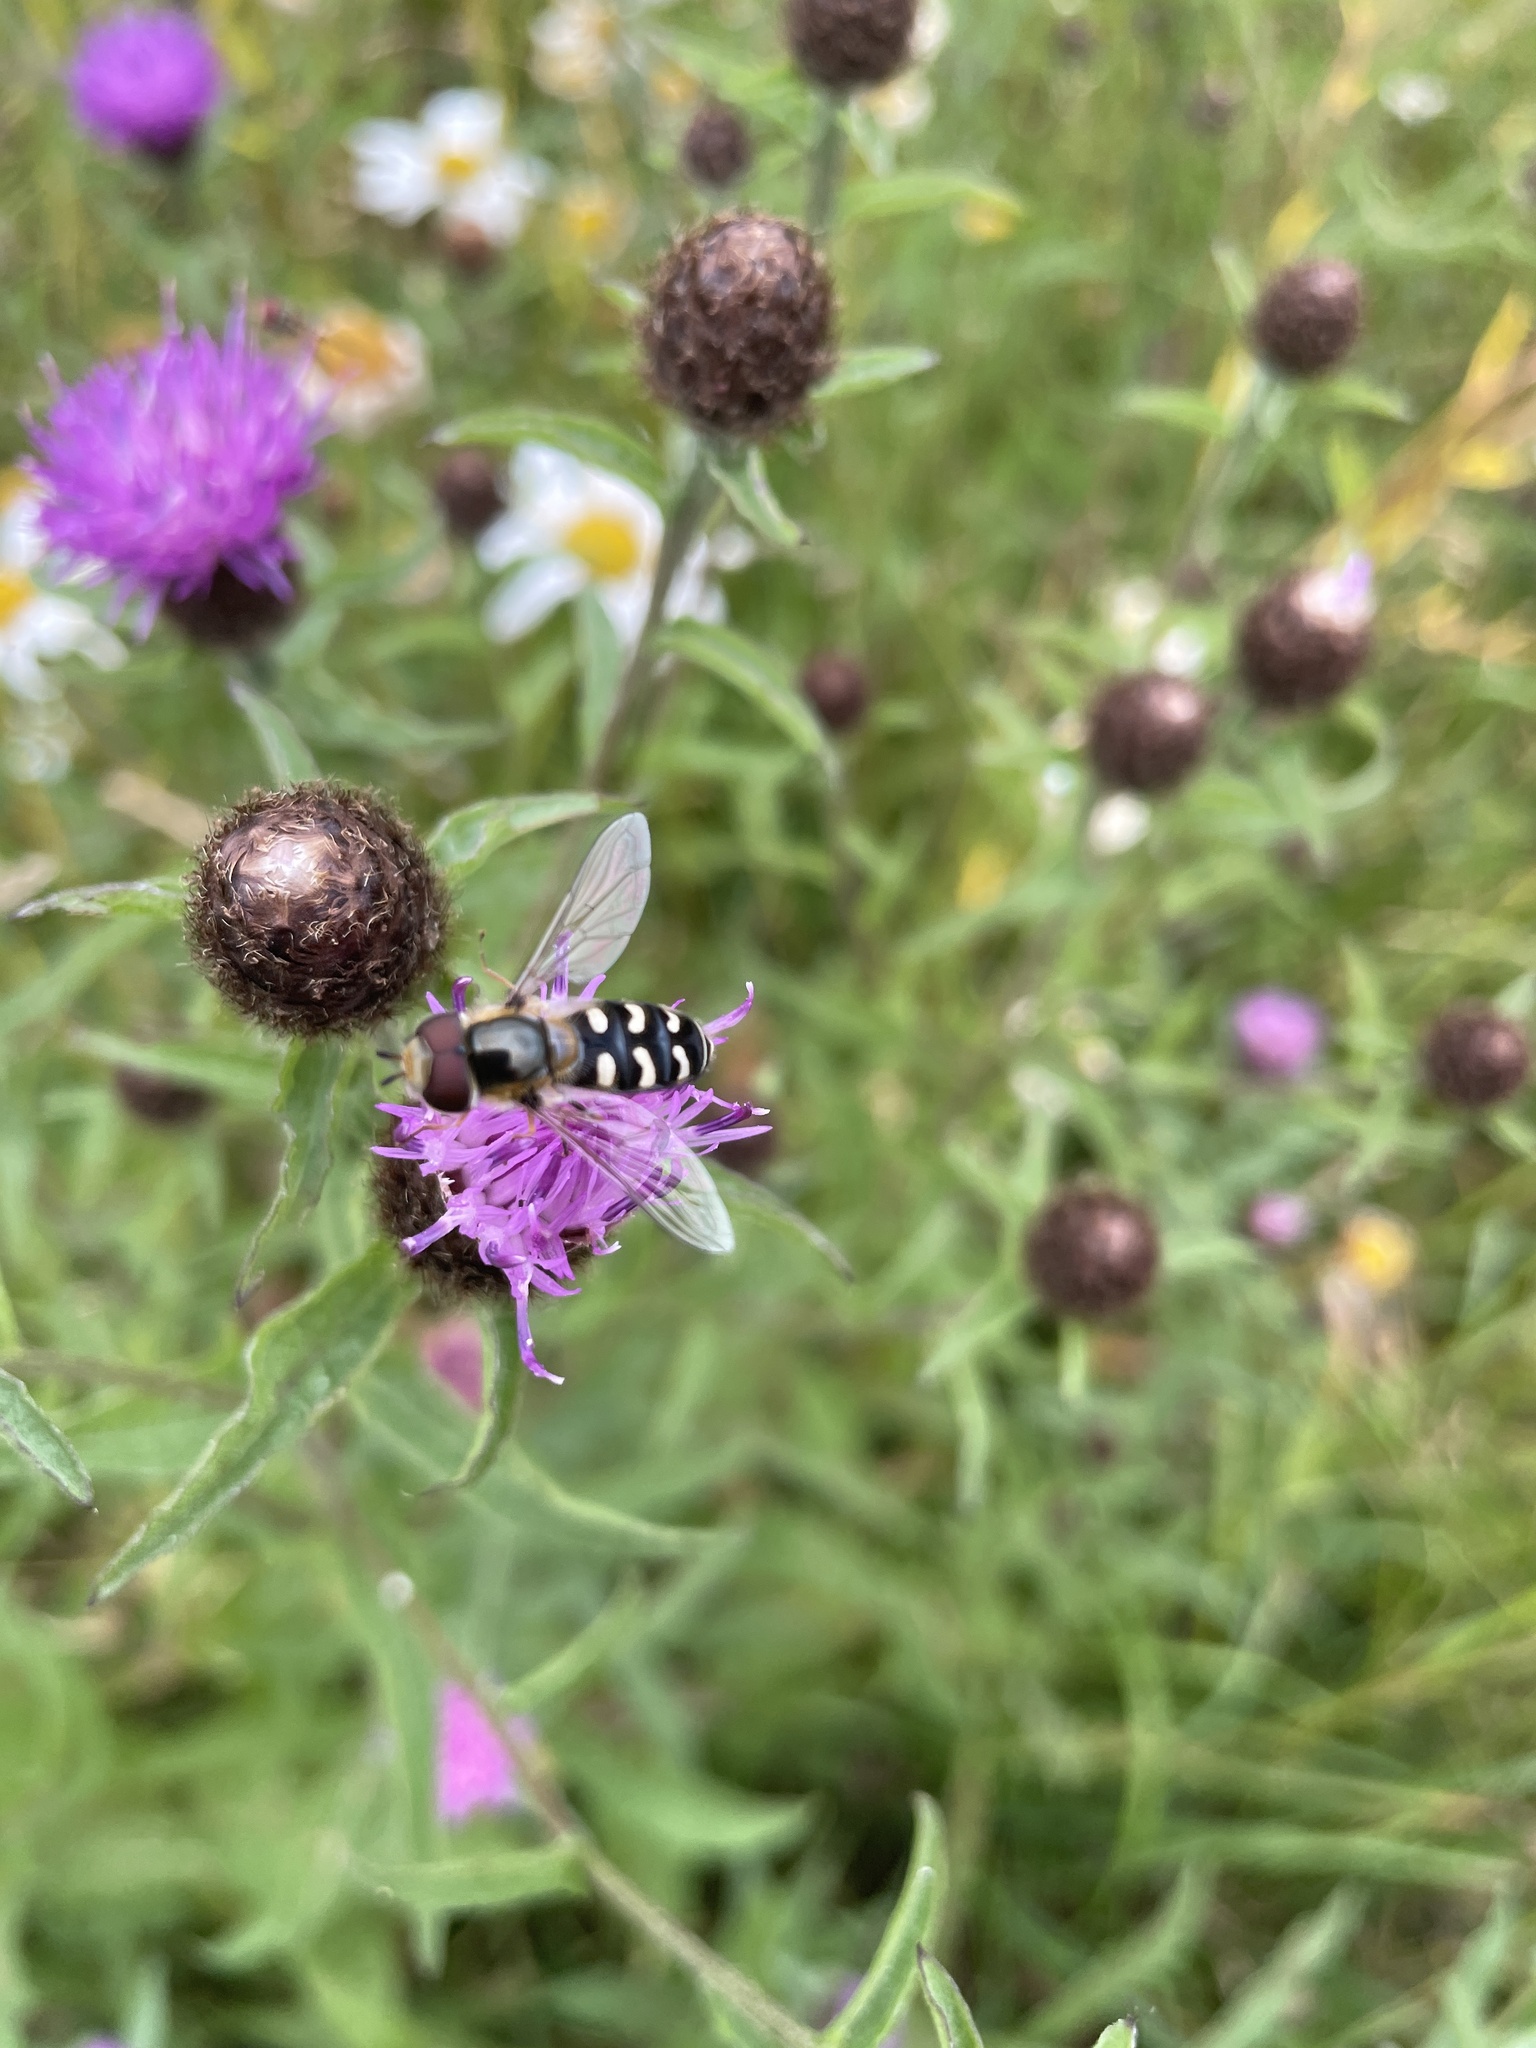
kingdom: Animalia
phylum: Arthropoda
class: Insecta
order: Diptera
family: Syrphidae
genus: Scaeva
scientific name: Scaeva pyrastri
